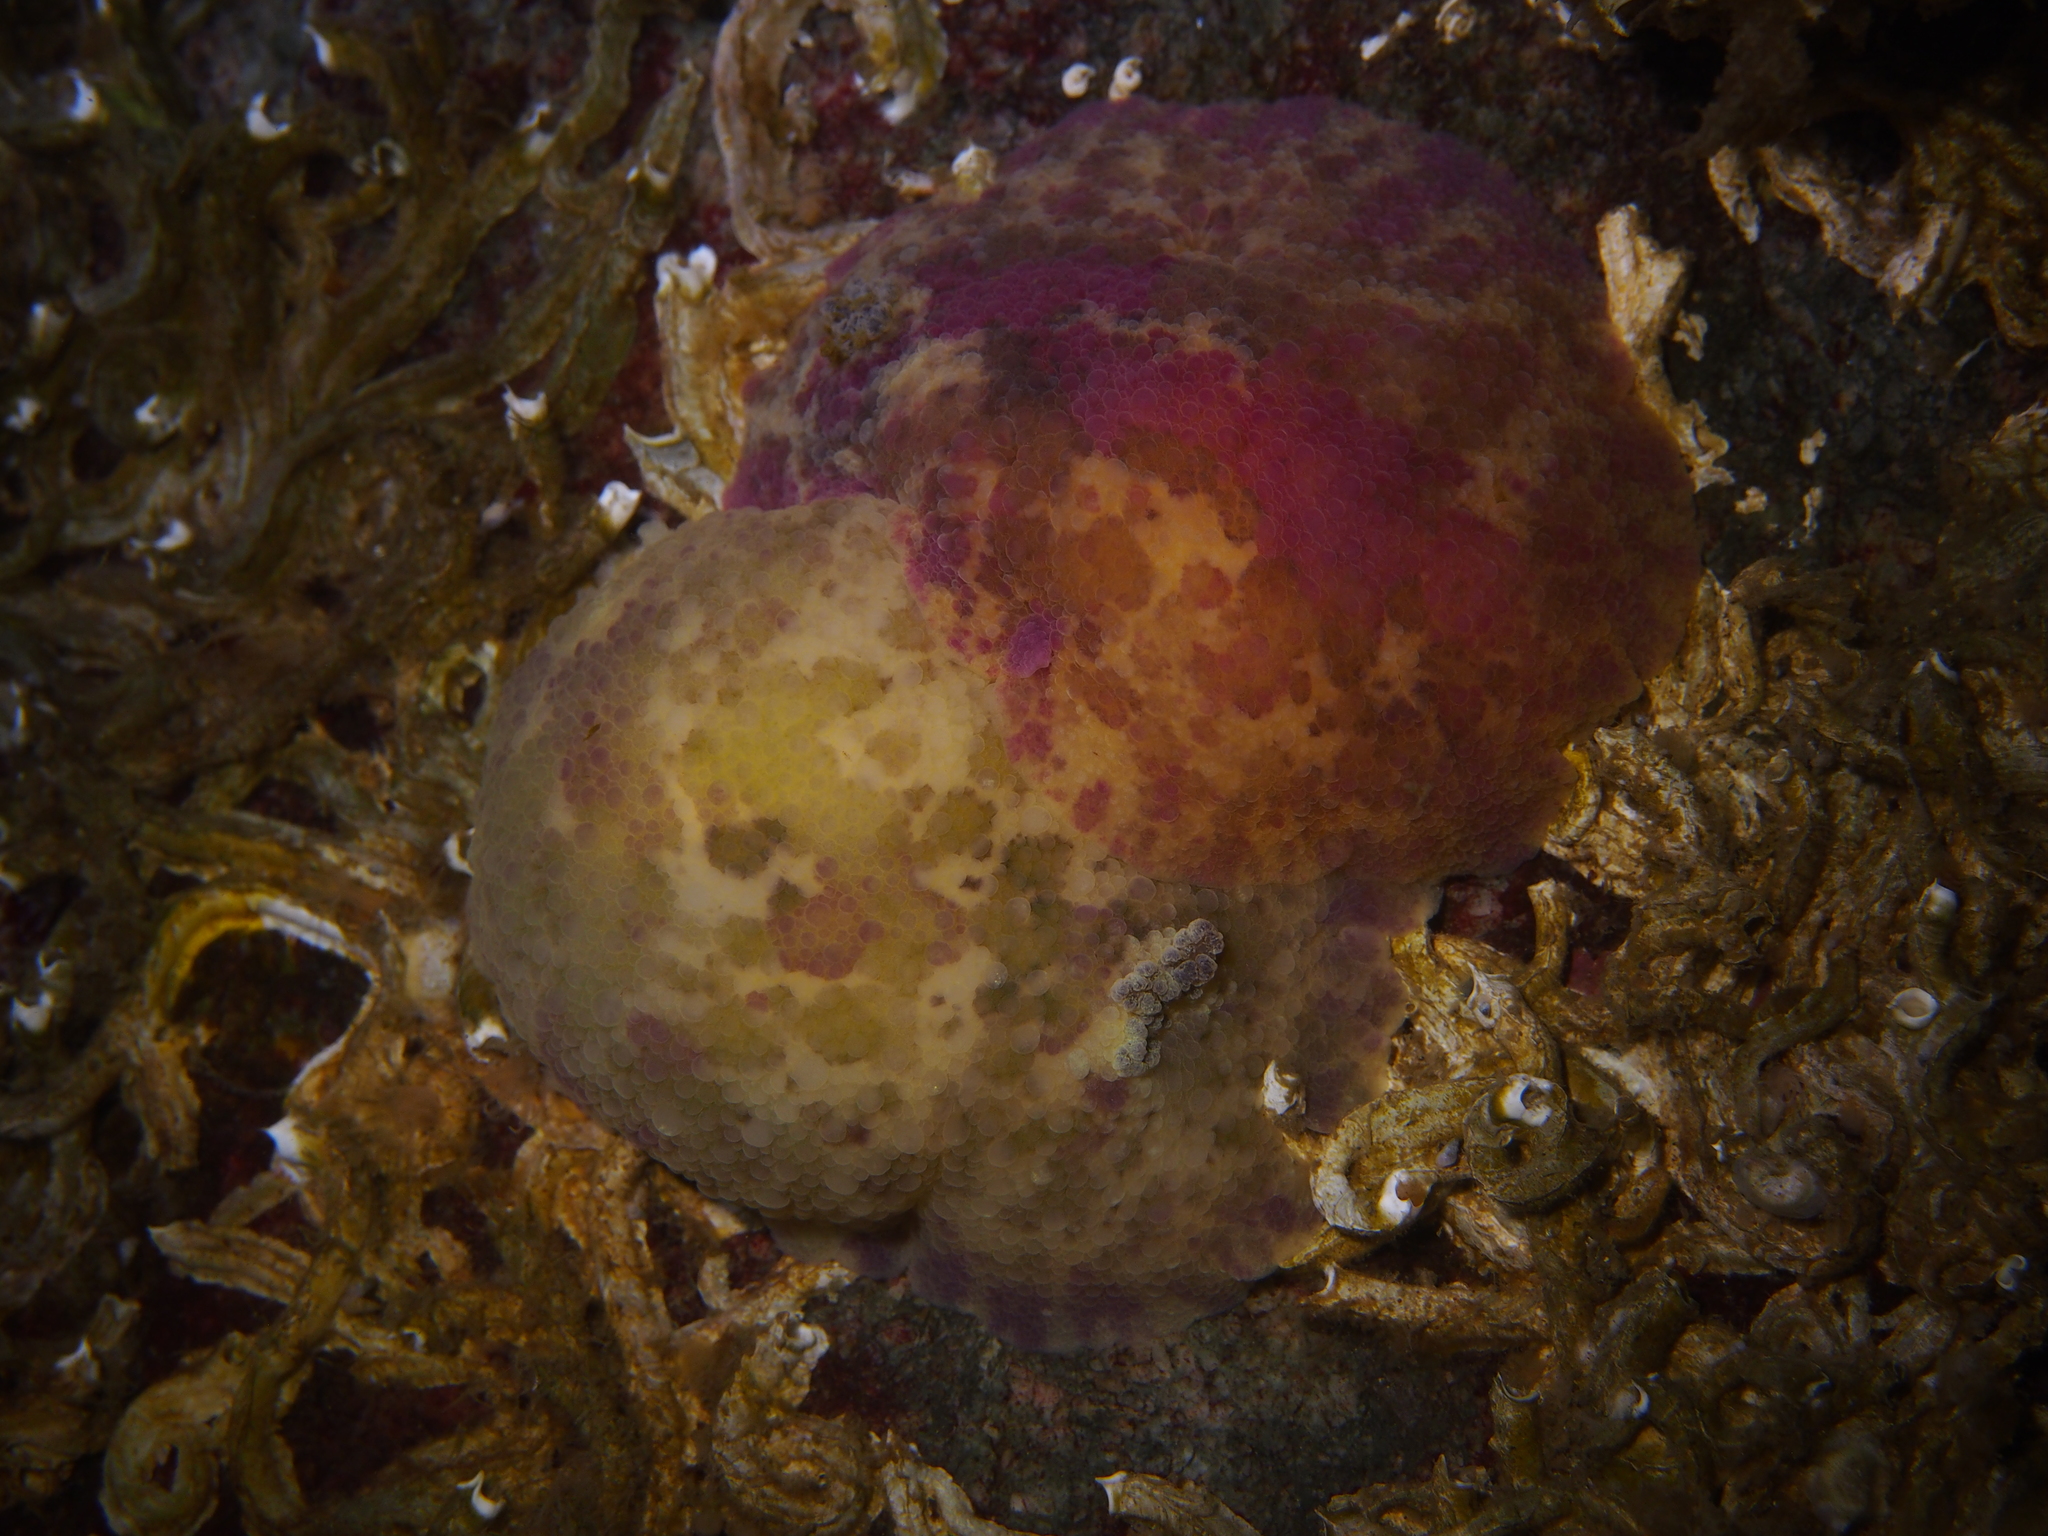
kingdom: Animalia
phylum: Mollusca
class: Gastropoda
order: Nudibranchia
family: Dorididae
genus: Doris
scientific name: Doris pseudoargus
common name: Sea lemon
